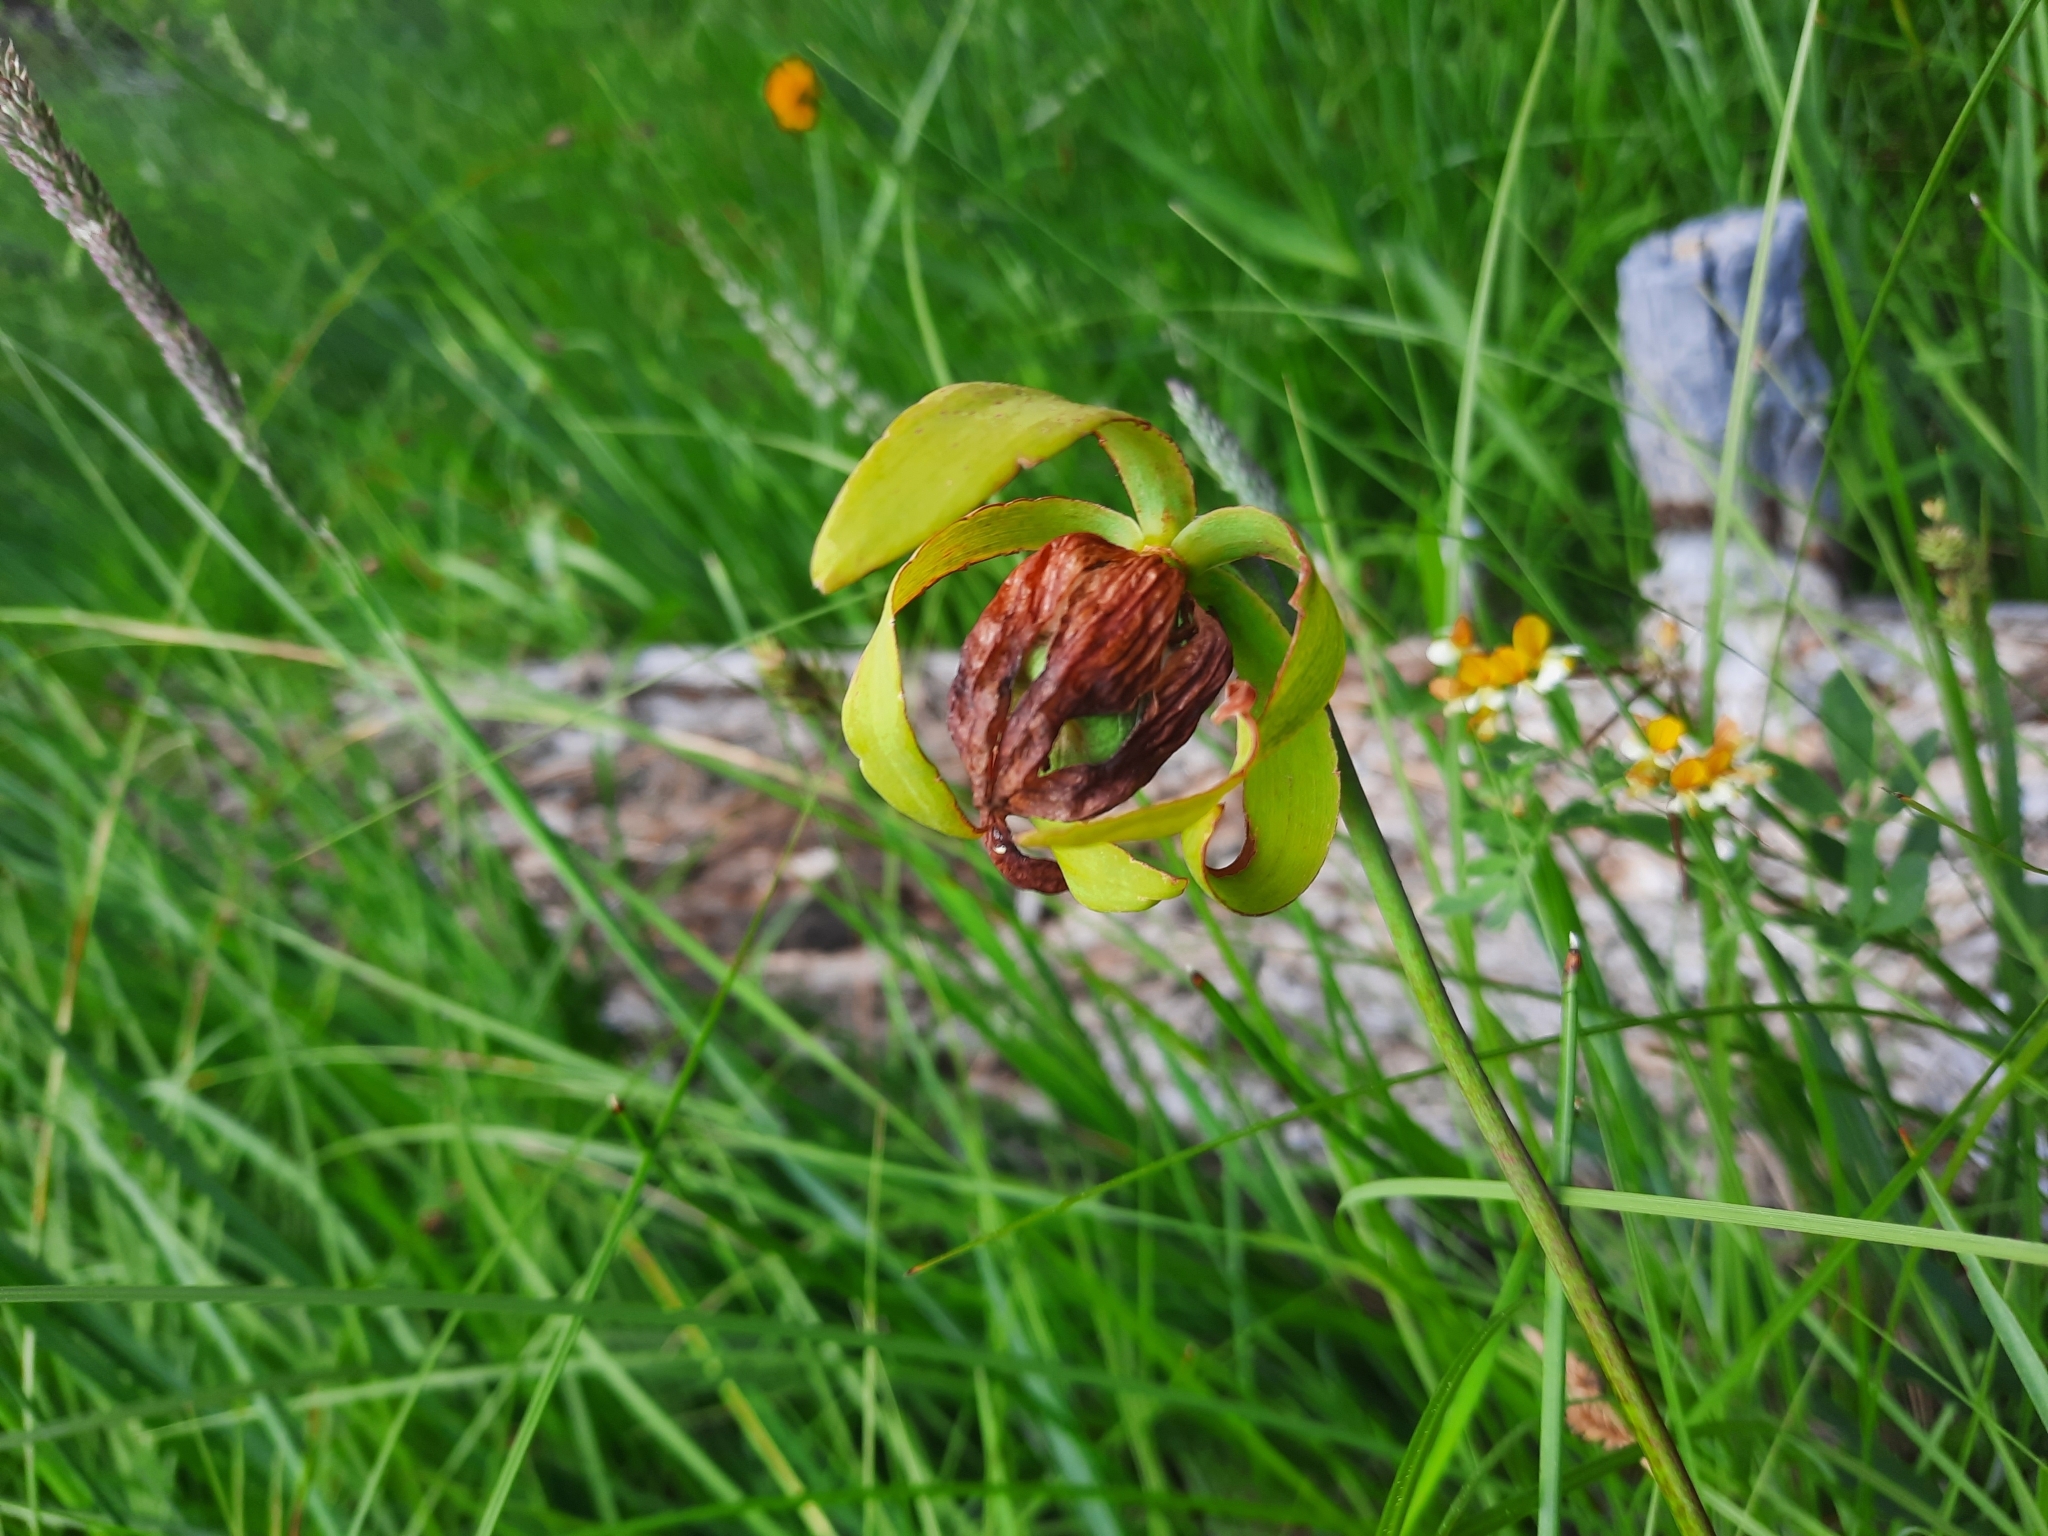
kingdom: Plantae
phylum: Tracheophyta
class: Magnoliopsida
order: Ericales
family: Sarraceniaceae
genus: Darlingtonia
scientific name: Darlingtonia californica
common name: California pitcher plant
